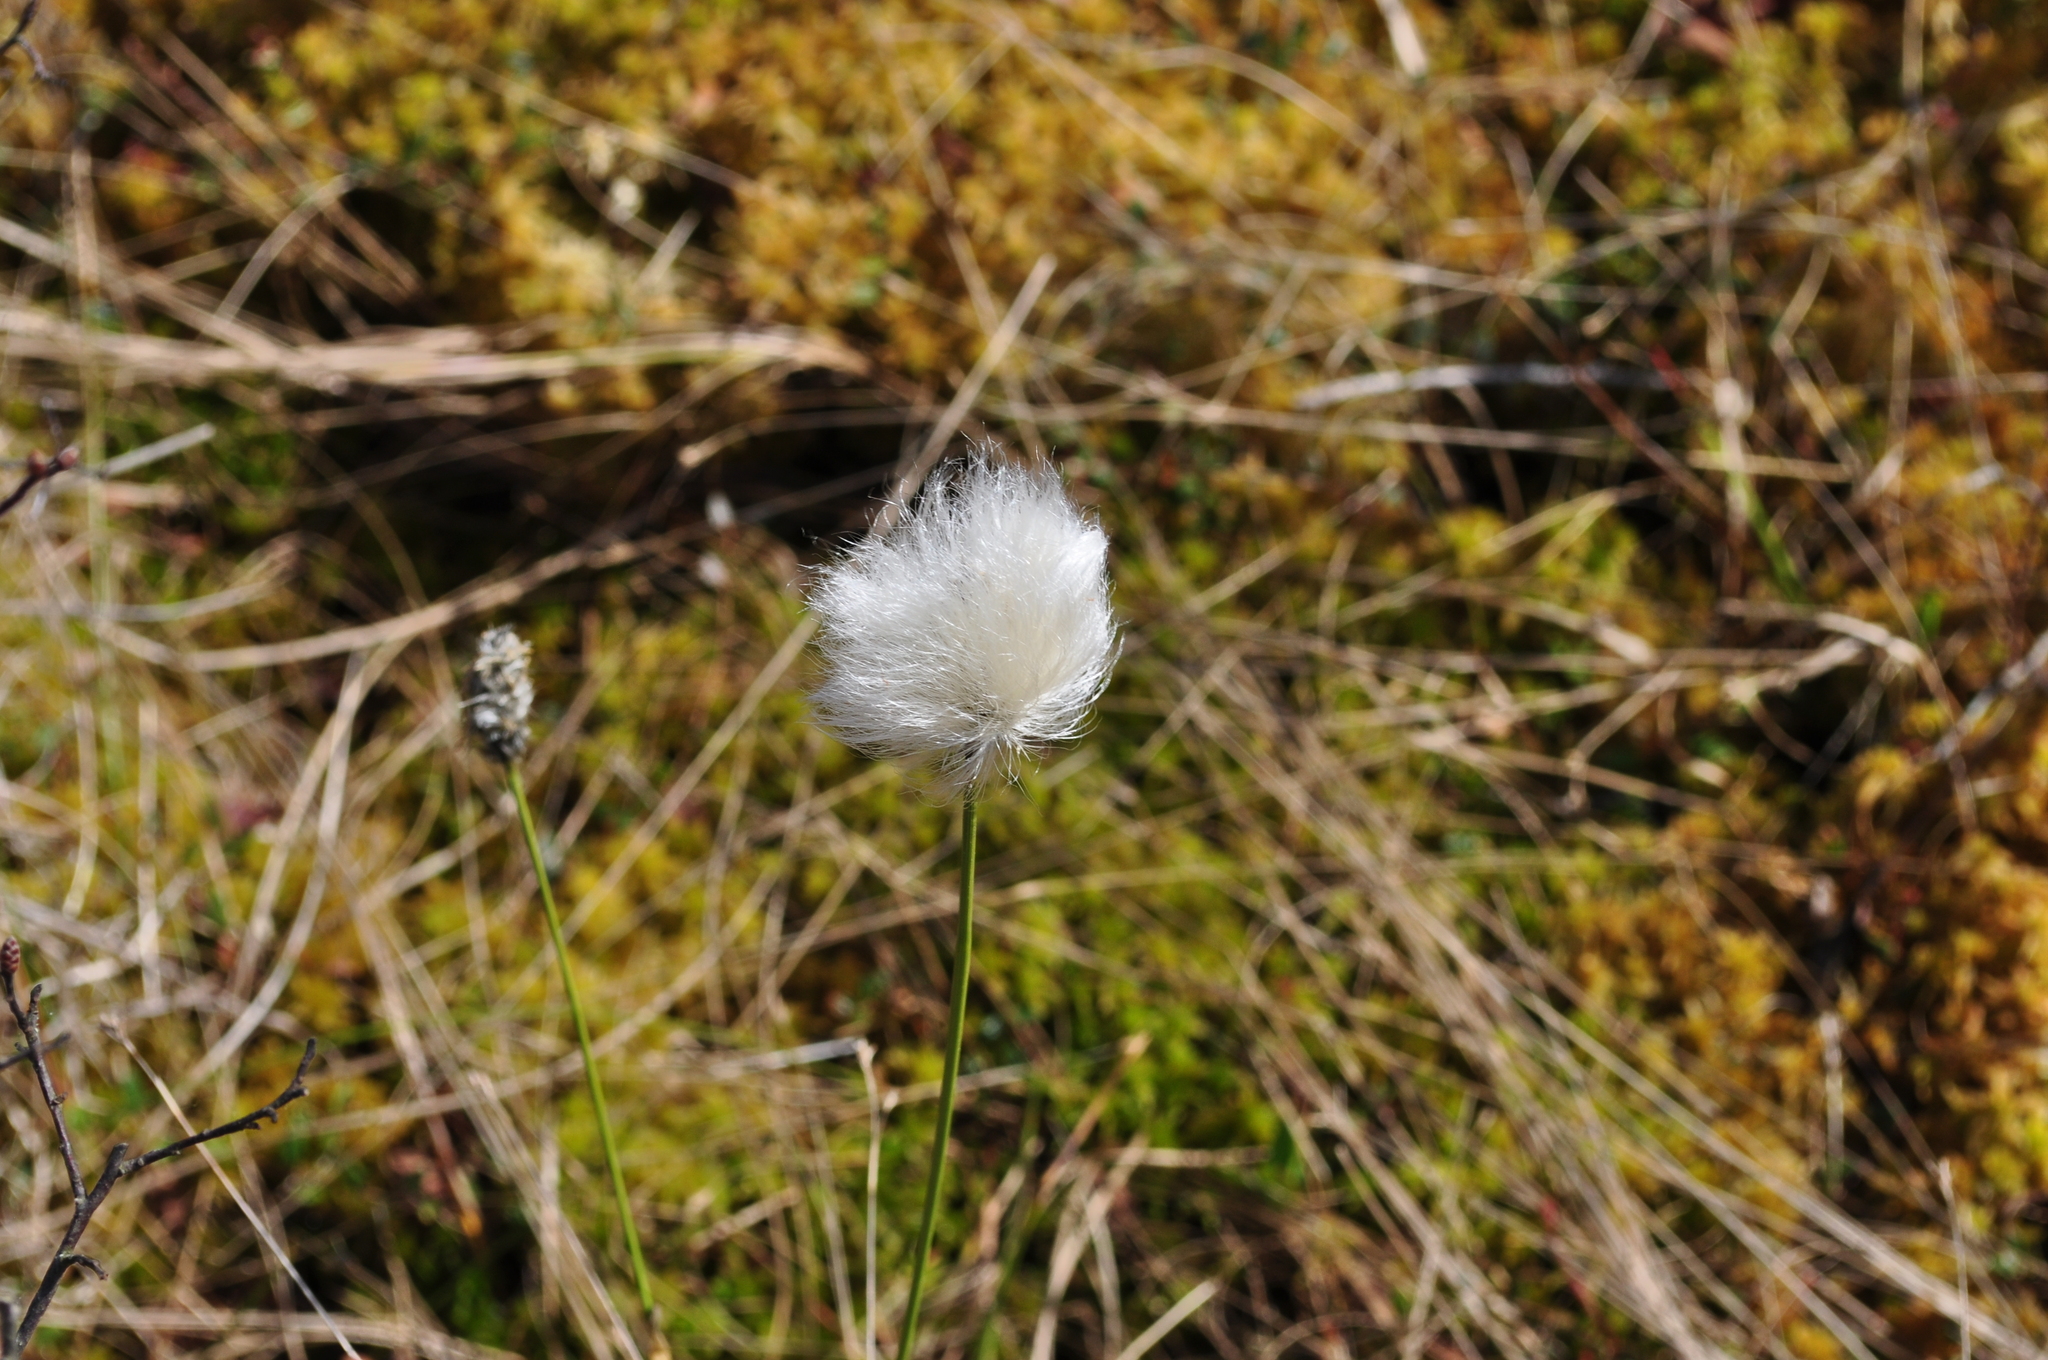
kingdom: Plantae
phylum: Tracheophyta
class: Liliopsida
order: Poales
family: Cyperaceae
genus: Eriophorum
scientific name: Eriophorum vaginatum
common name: Hare's-tail cottongrass
